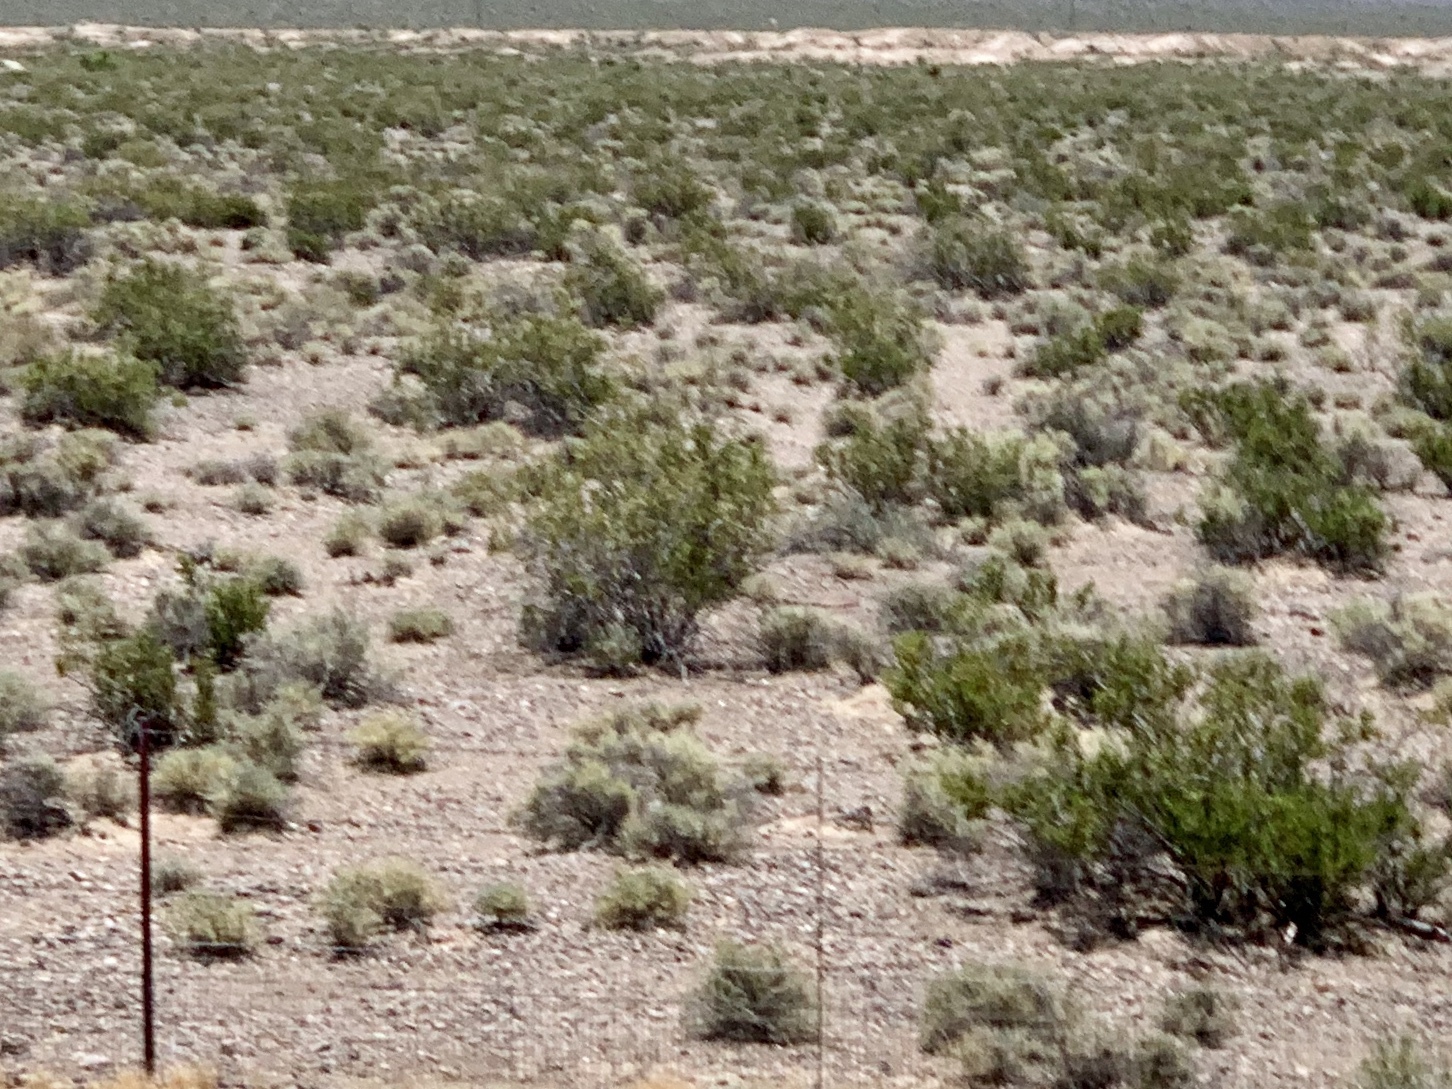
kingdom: Plantae
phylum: Tracheophyta
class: Magnoliopsida
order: Zygophyllales
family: Zygophyllaceae
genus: Larrea
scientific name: Larrea tridentata
